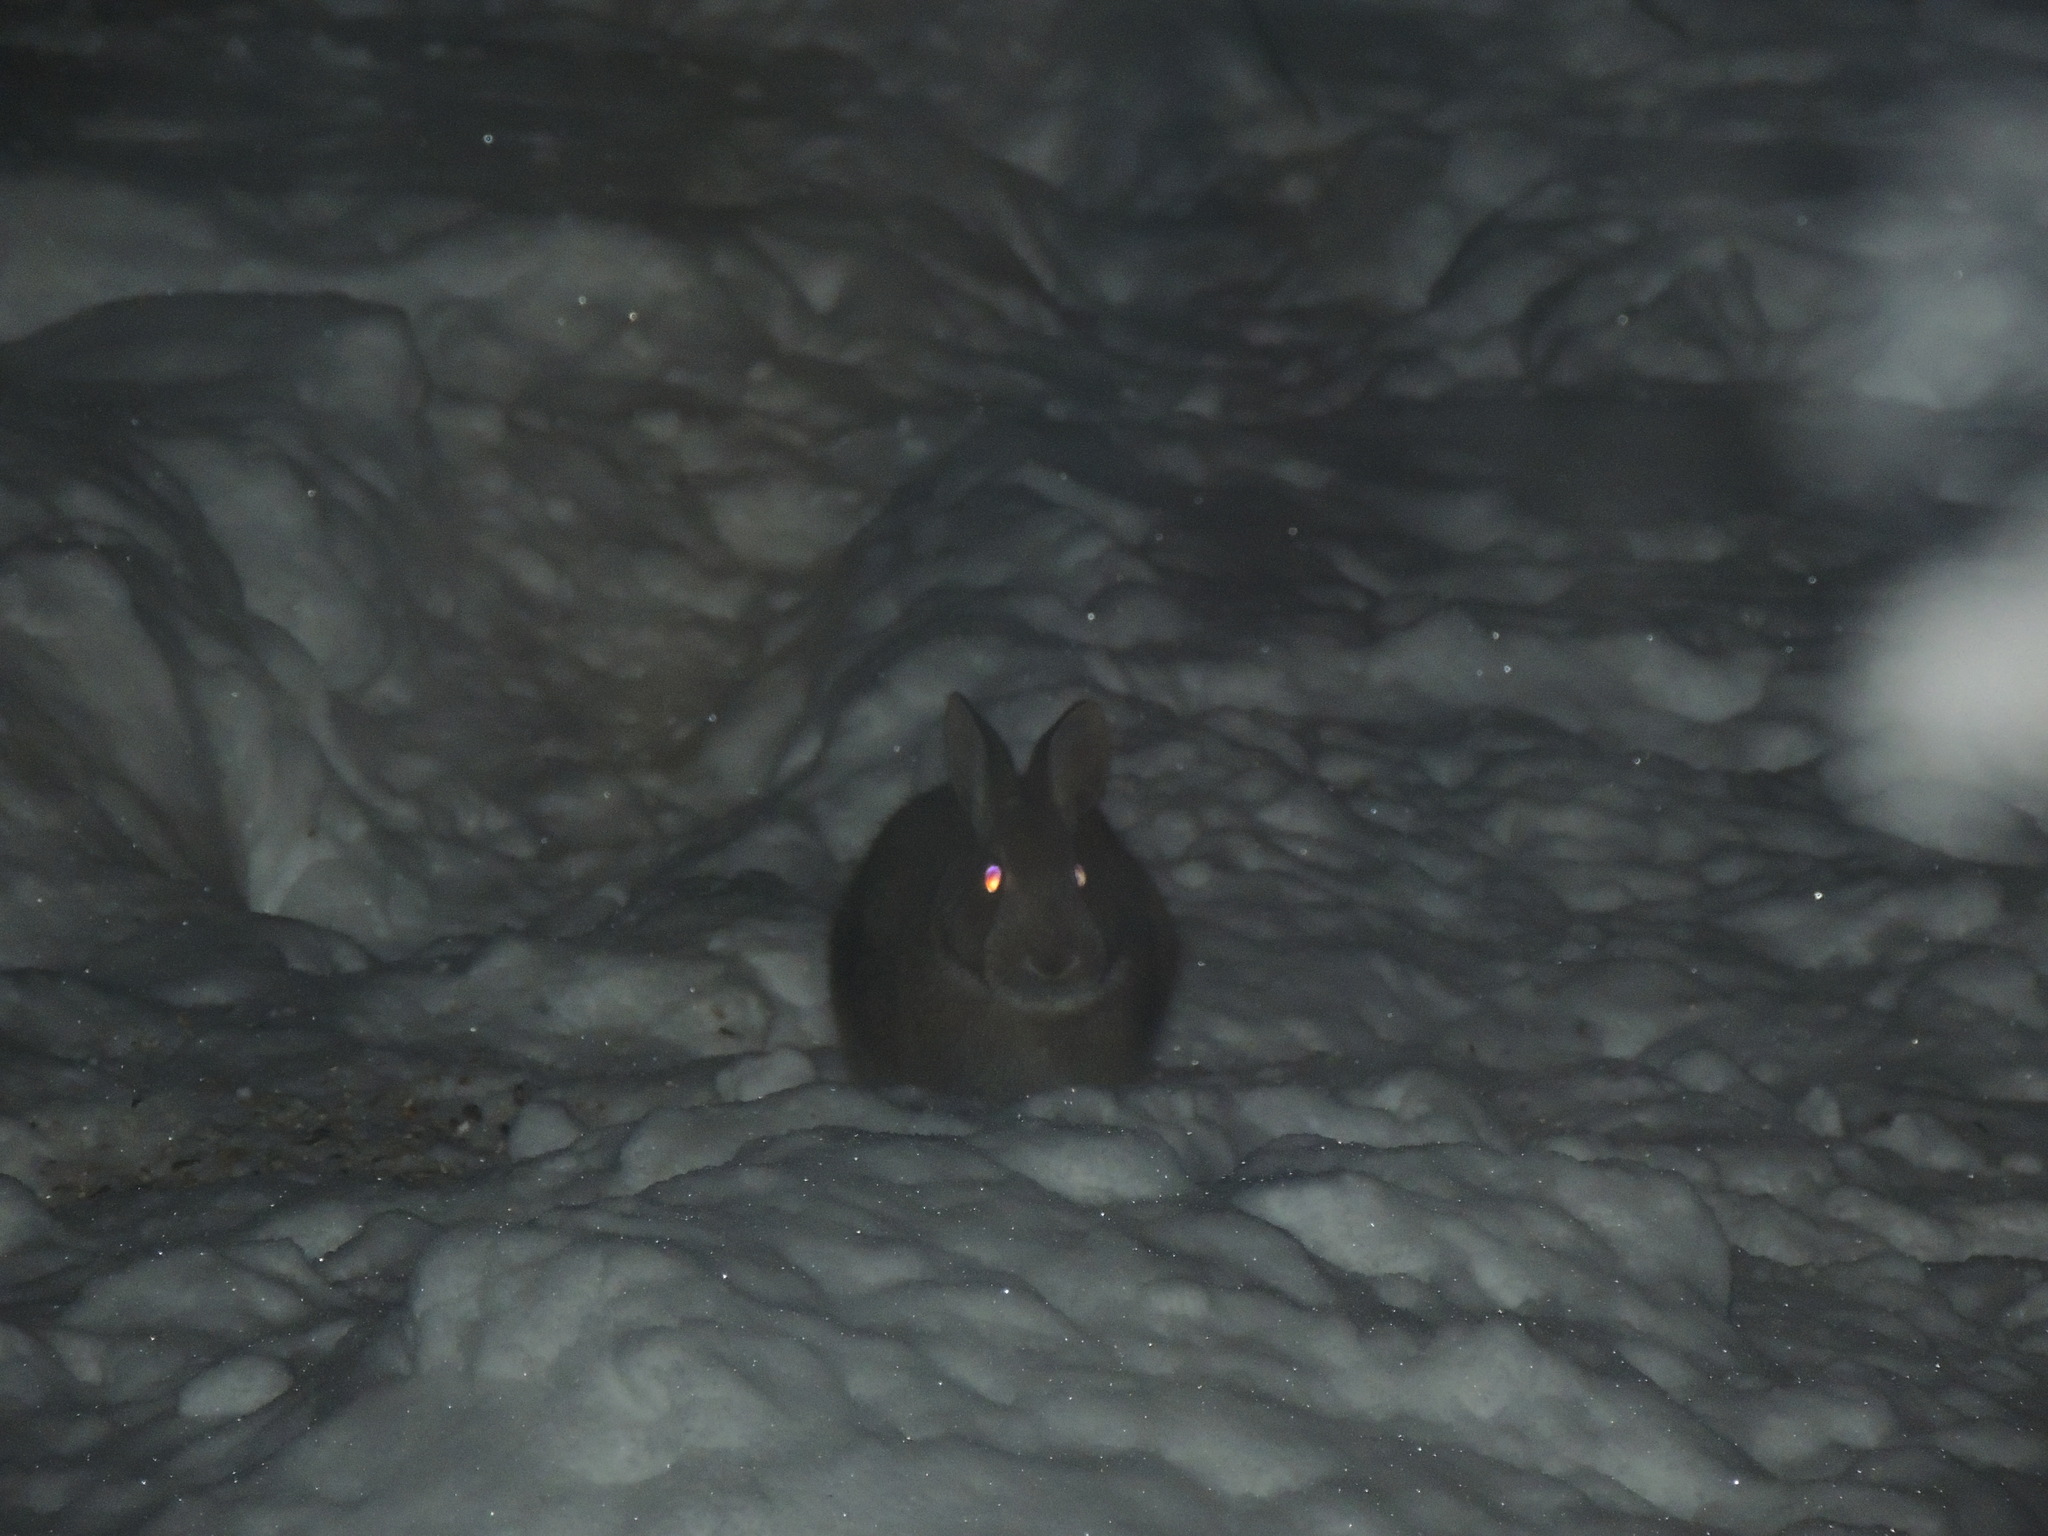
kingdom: Animalia
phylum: Chordata
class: Mammalia
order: Lagomorpha
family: Leporidae
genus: Sylvilagus
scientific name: Sylvilagus floridanus
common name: Eastern cottontail
